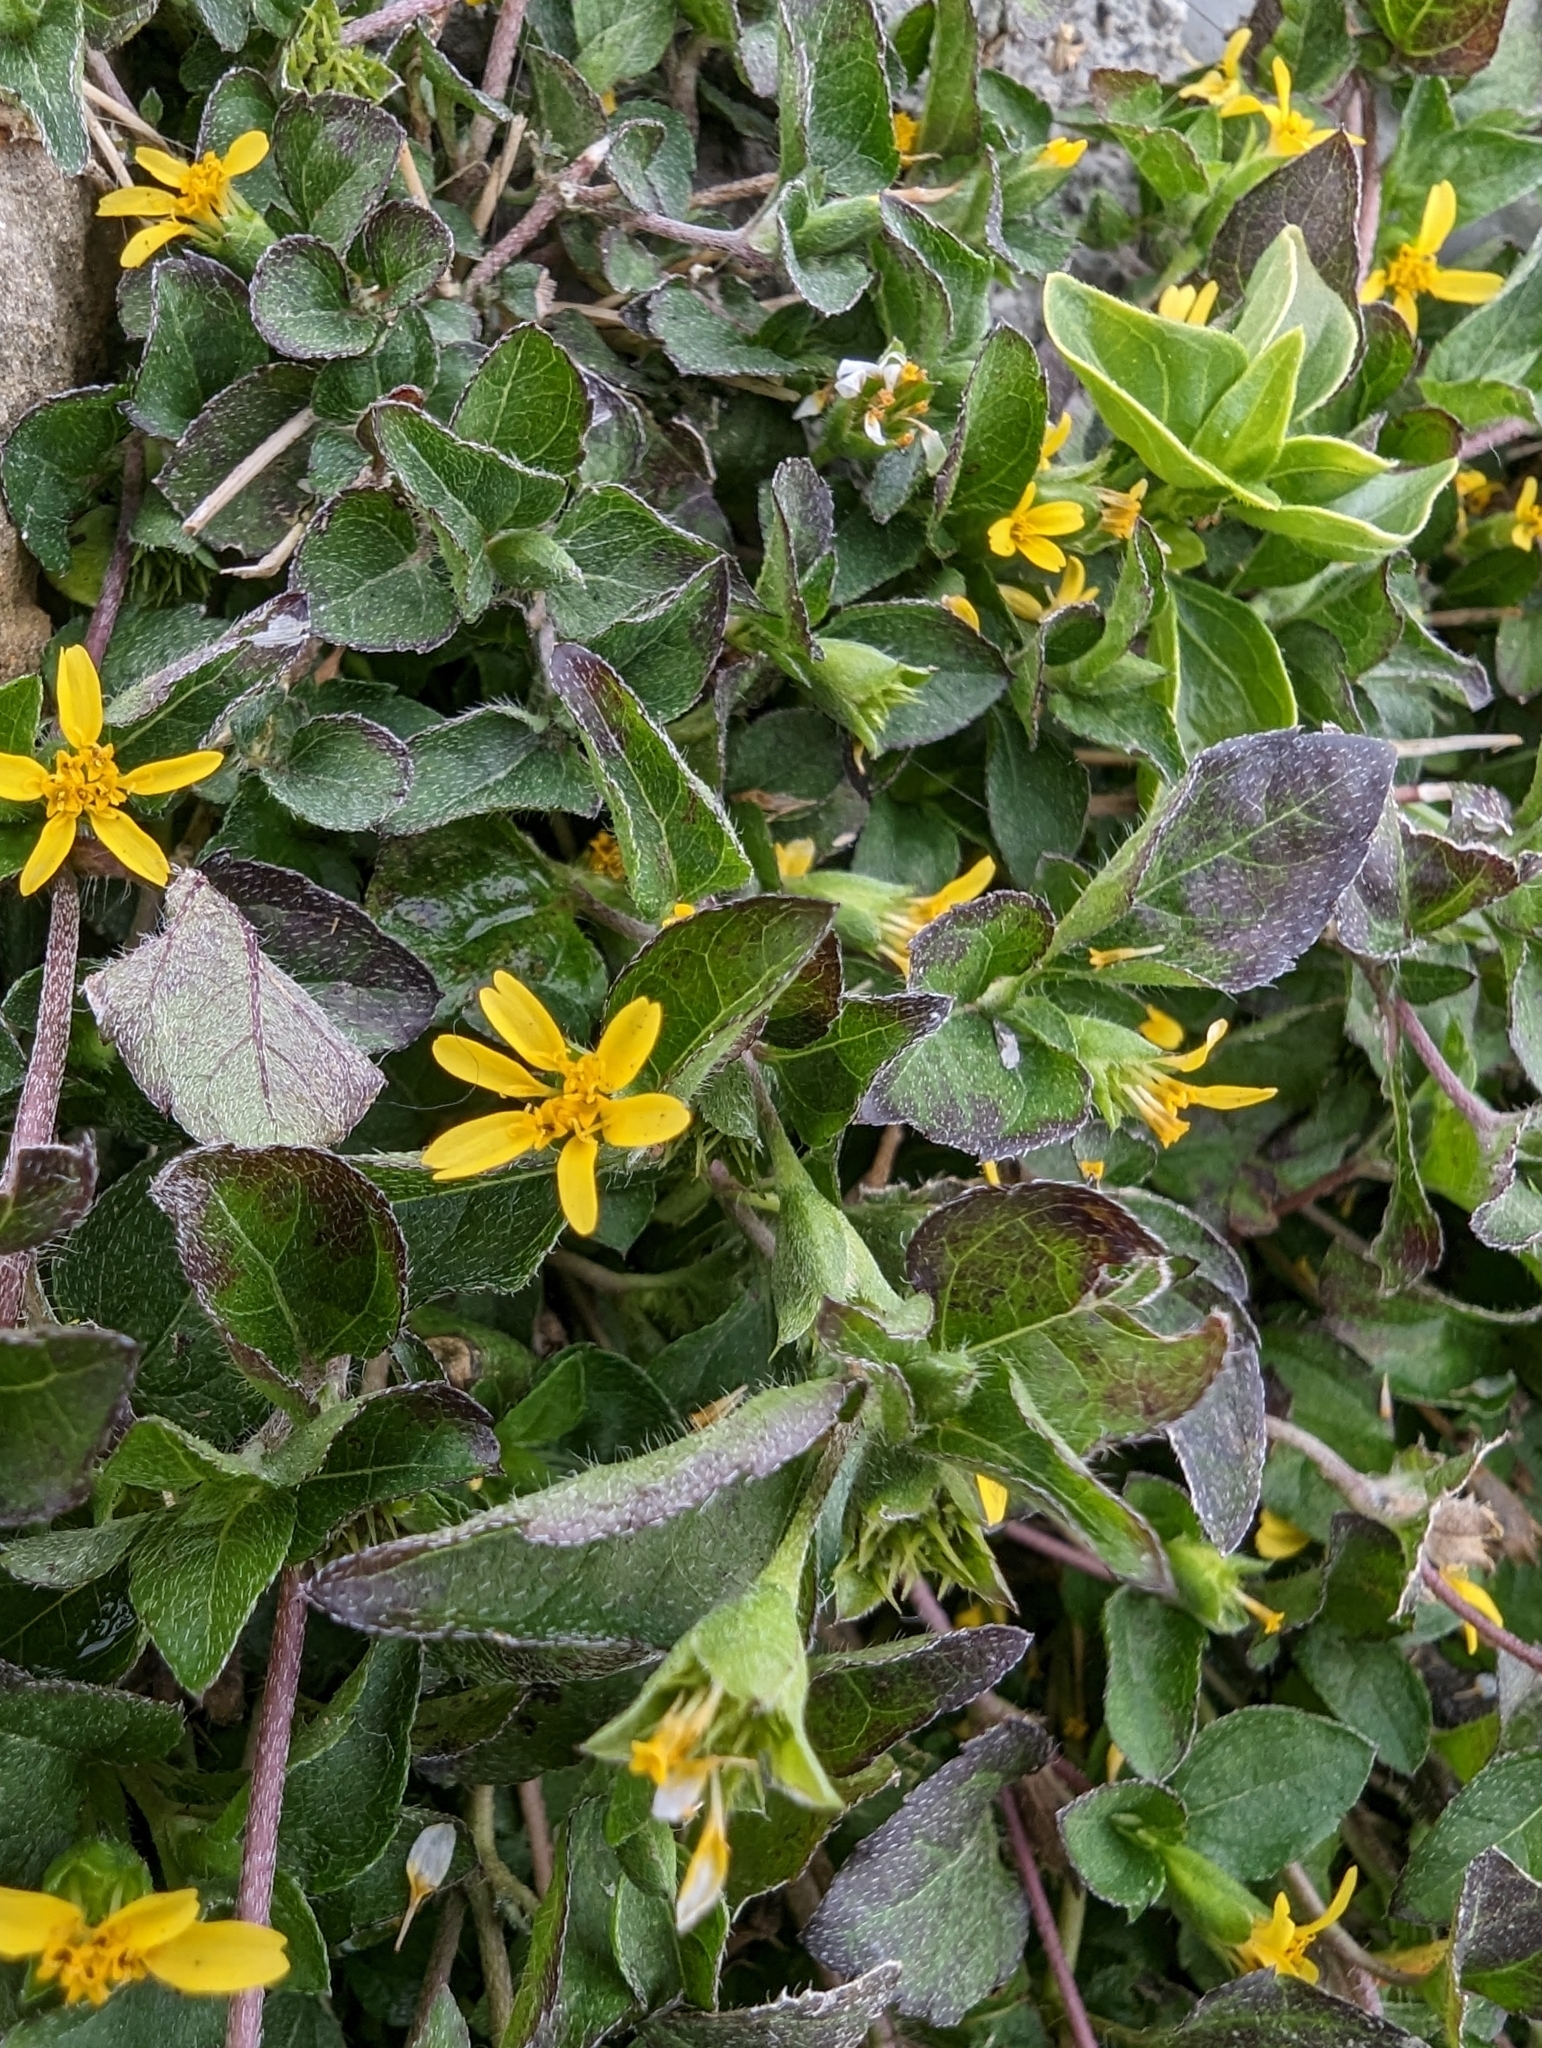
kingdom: Plantae
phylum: Tracheophyta
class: Magnoliopsida
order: Asterales
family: Asteraceae
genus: Calyptocarpus
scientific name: Calyptocarpus vialis
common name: Straggler daisy
